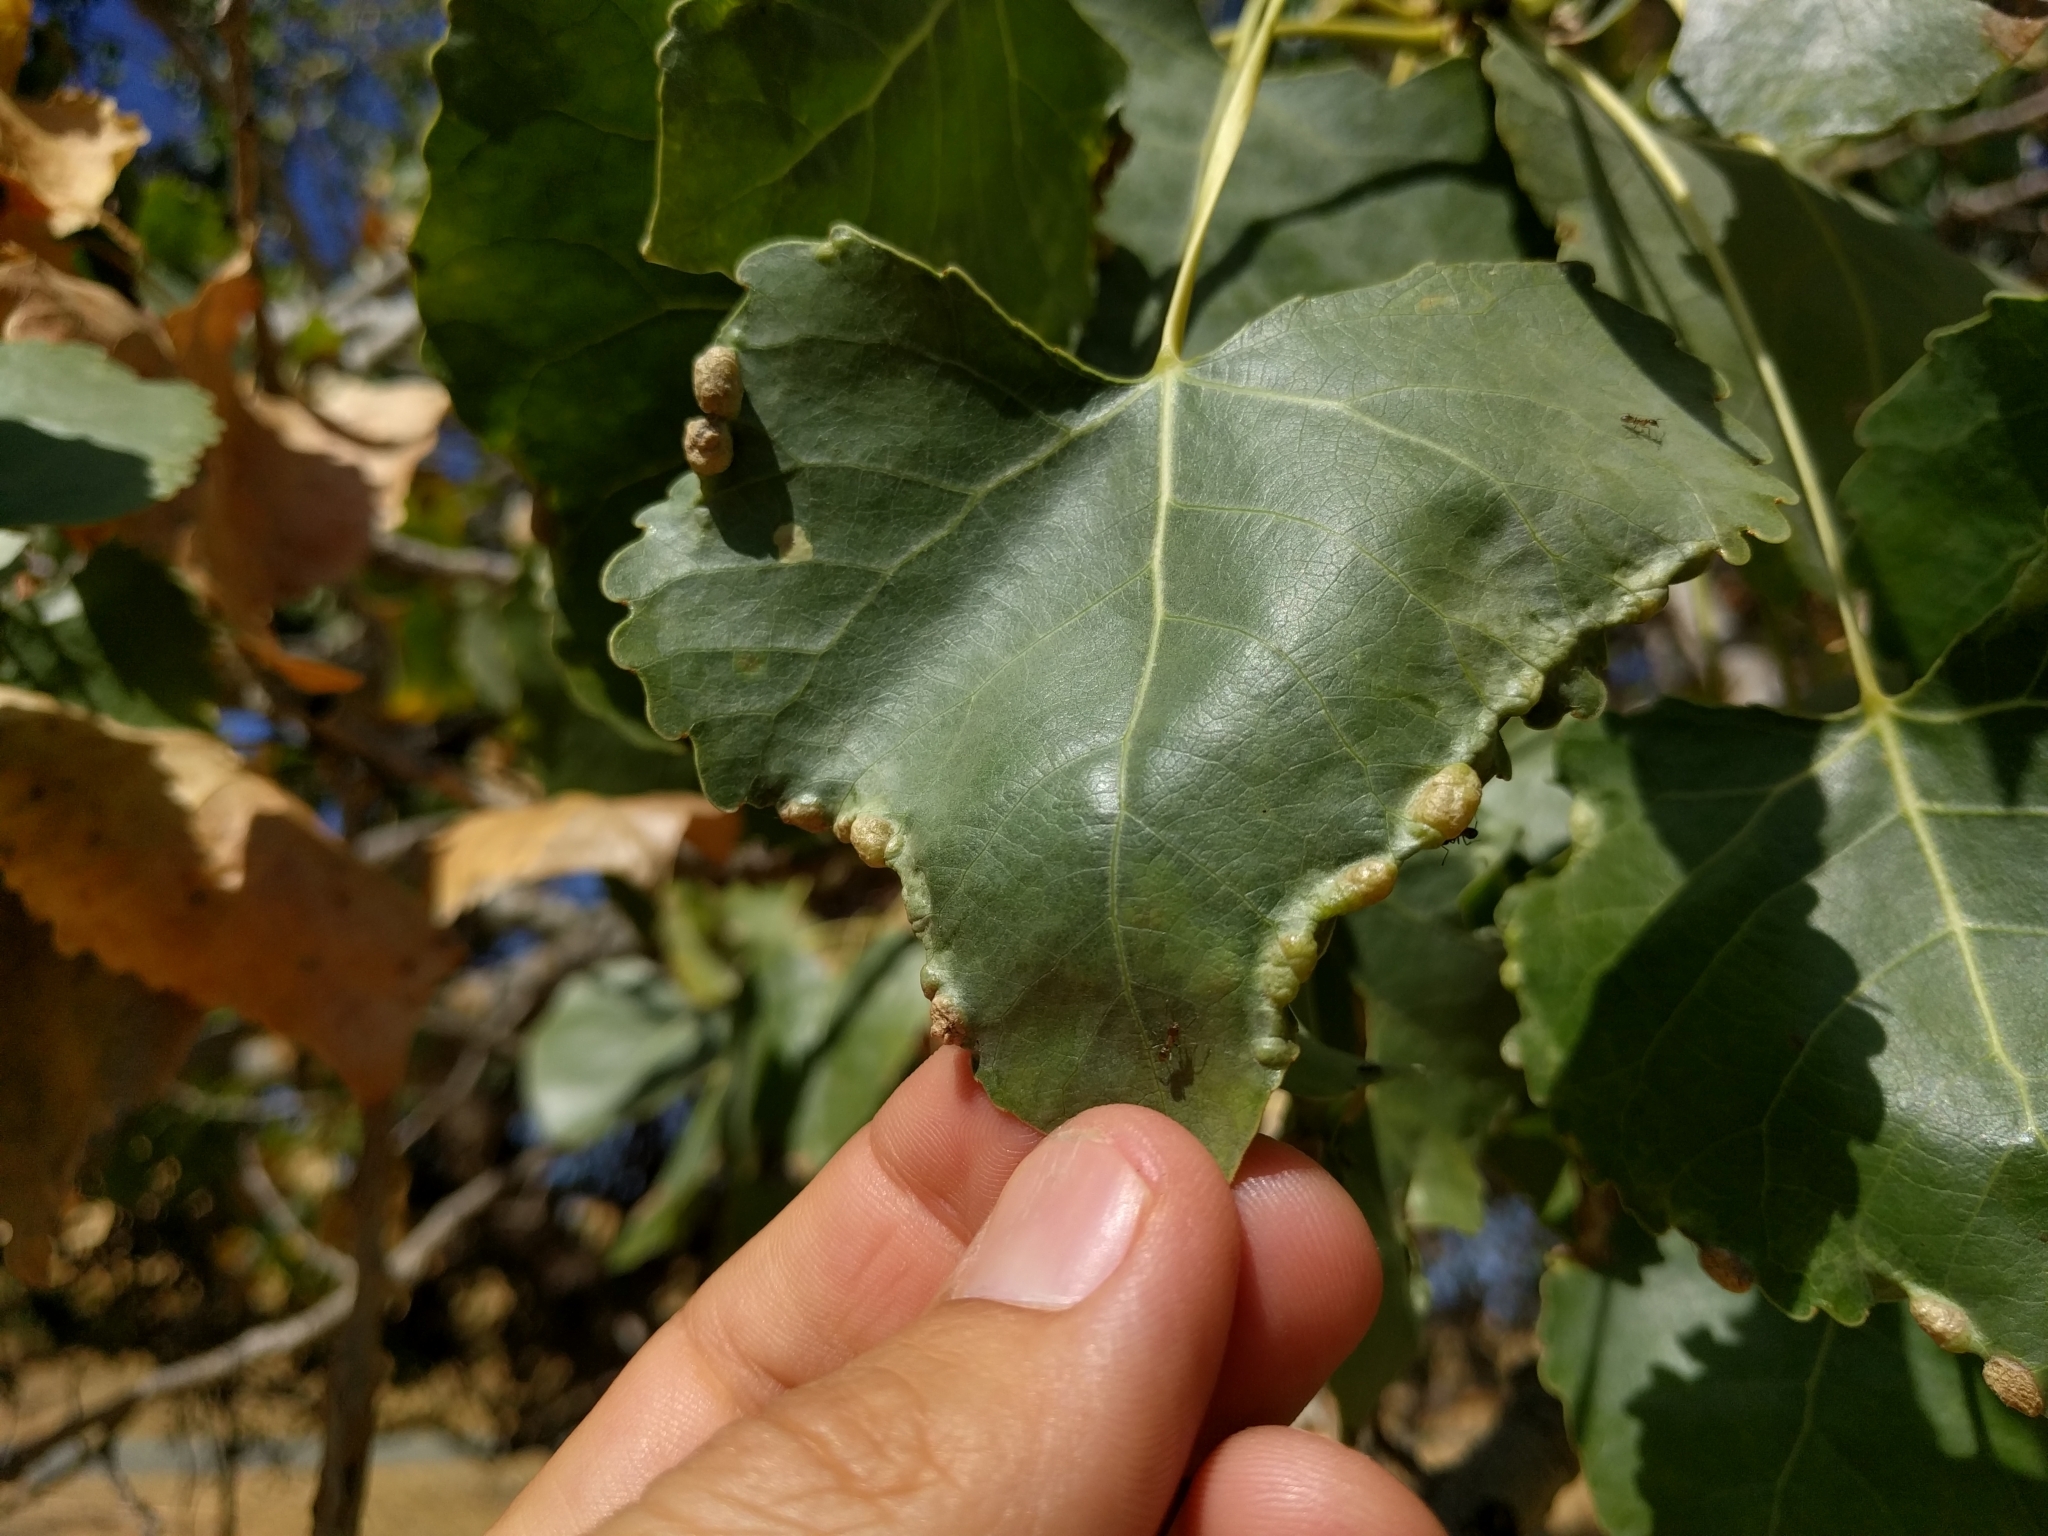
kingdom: Animalia
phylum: Arthropoda
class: Insecta
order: Hemiptera
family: Aphididae
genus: Thecabius
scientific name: Thecabius populimonilis
